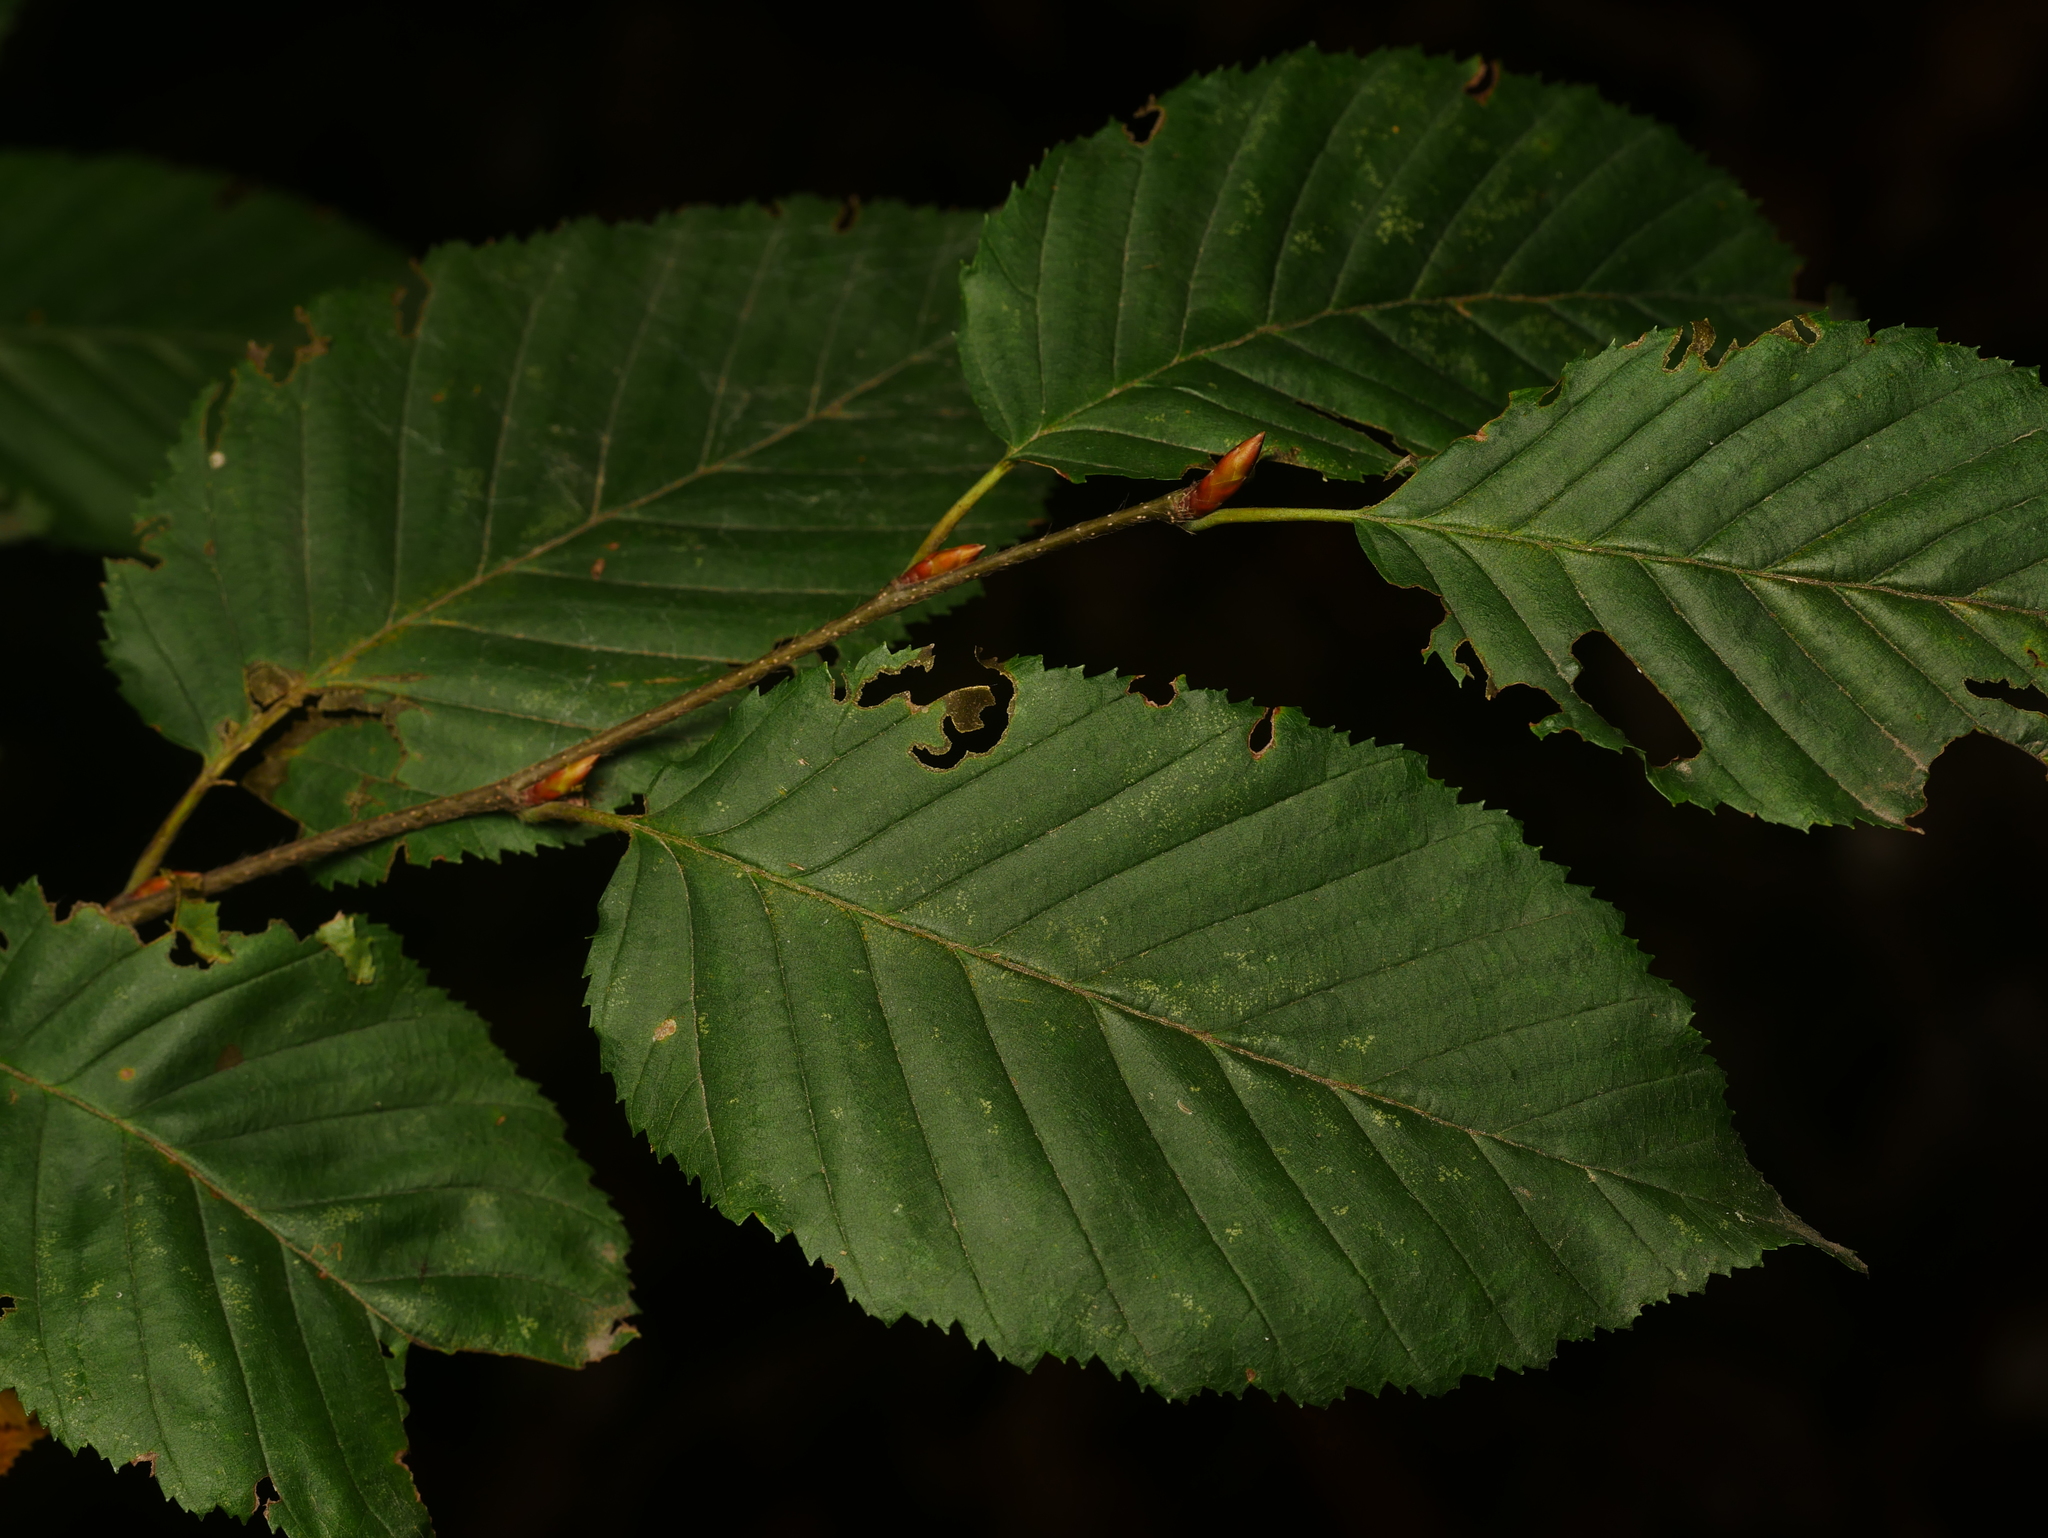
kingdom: Plantae
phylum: Tracheophyta
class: Magnoliopsida
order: Fagales
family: Betulaceae
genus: Carpinus
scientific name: Carpinus betulus
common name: Hornbeam
